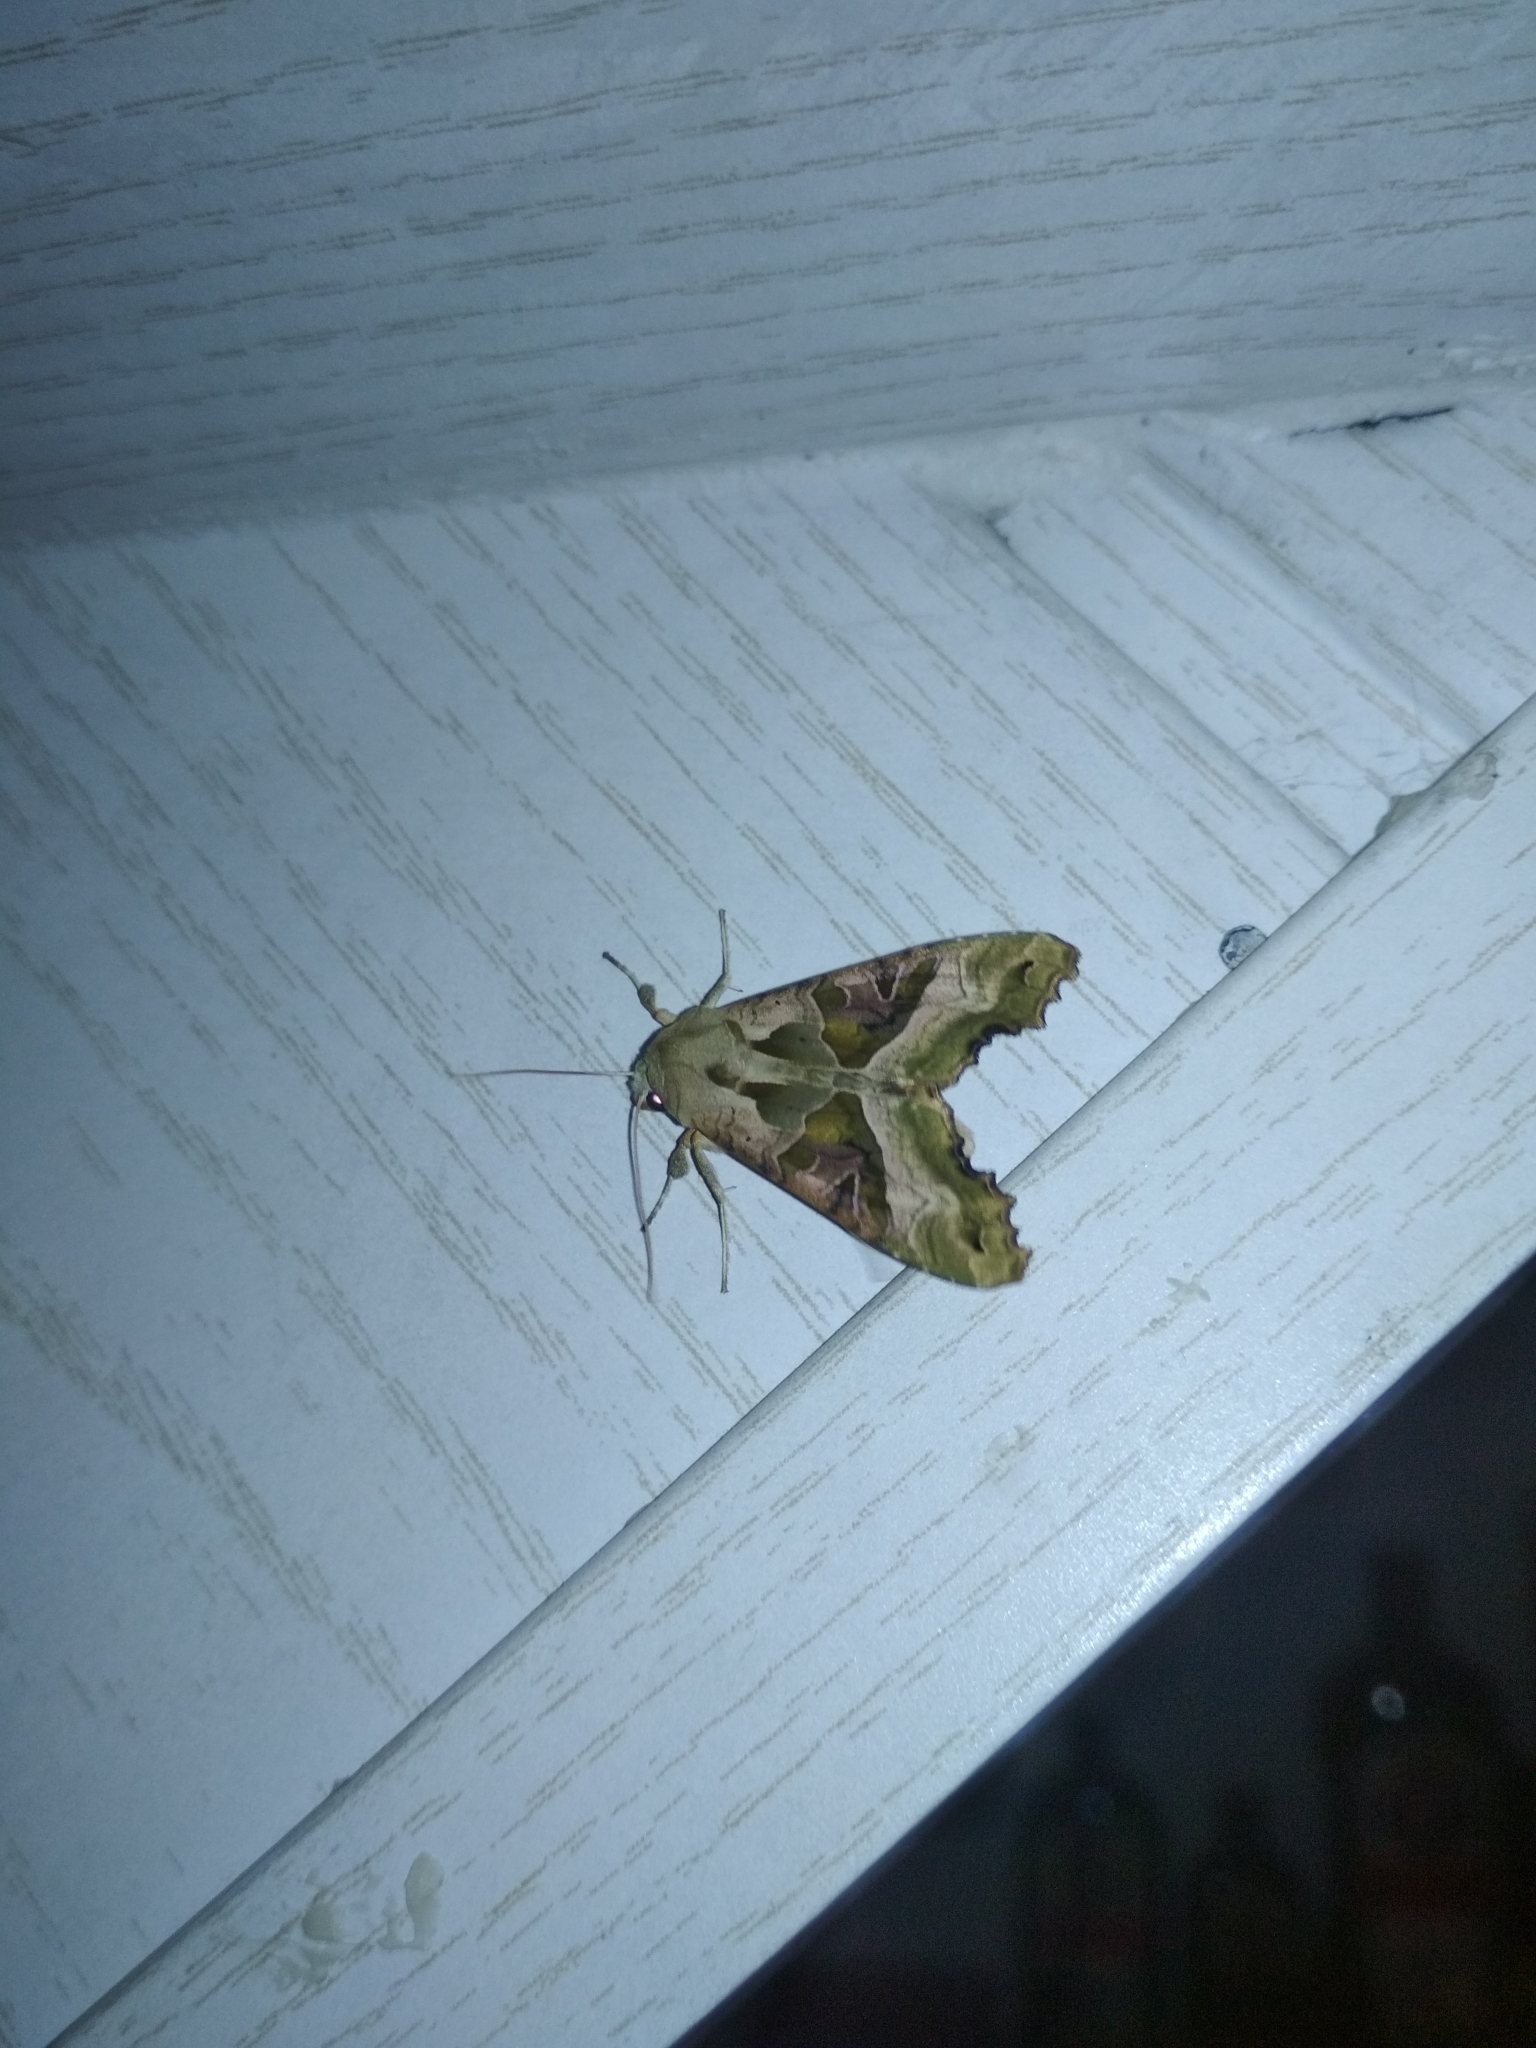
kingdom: Animalia
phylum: Arthropoda
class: Insecta
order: Lepidoptera
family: Noctuidae
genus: Phlogophora
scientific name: Phlogophora meticulosa
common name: Angle shades
